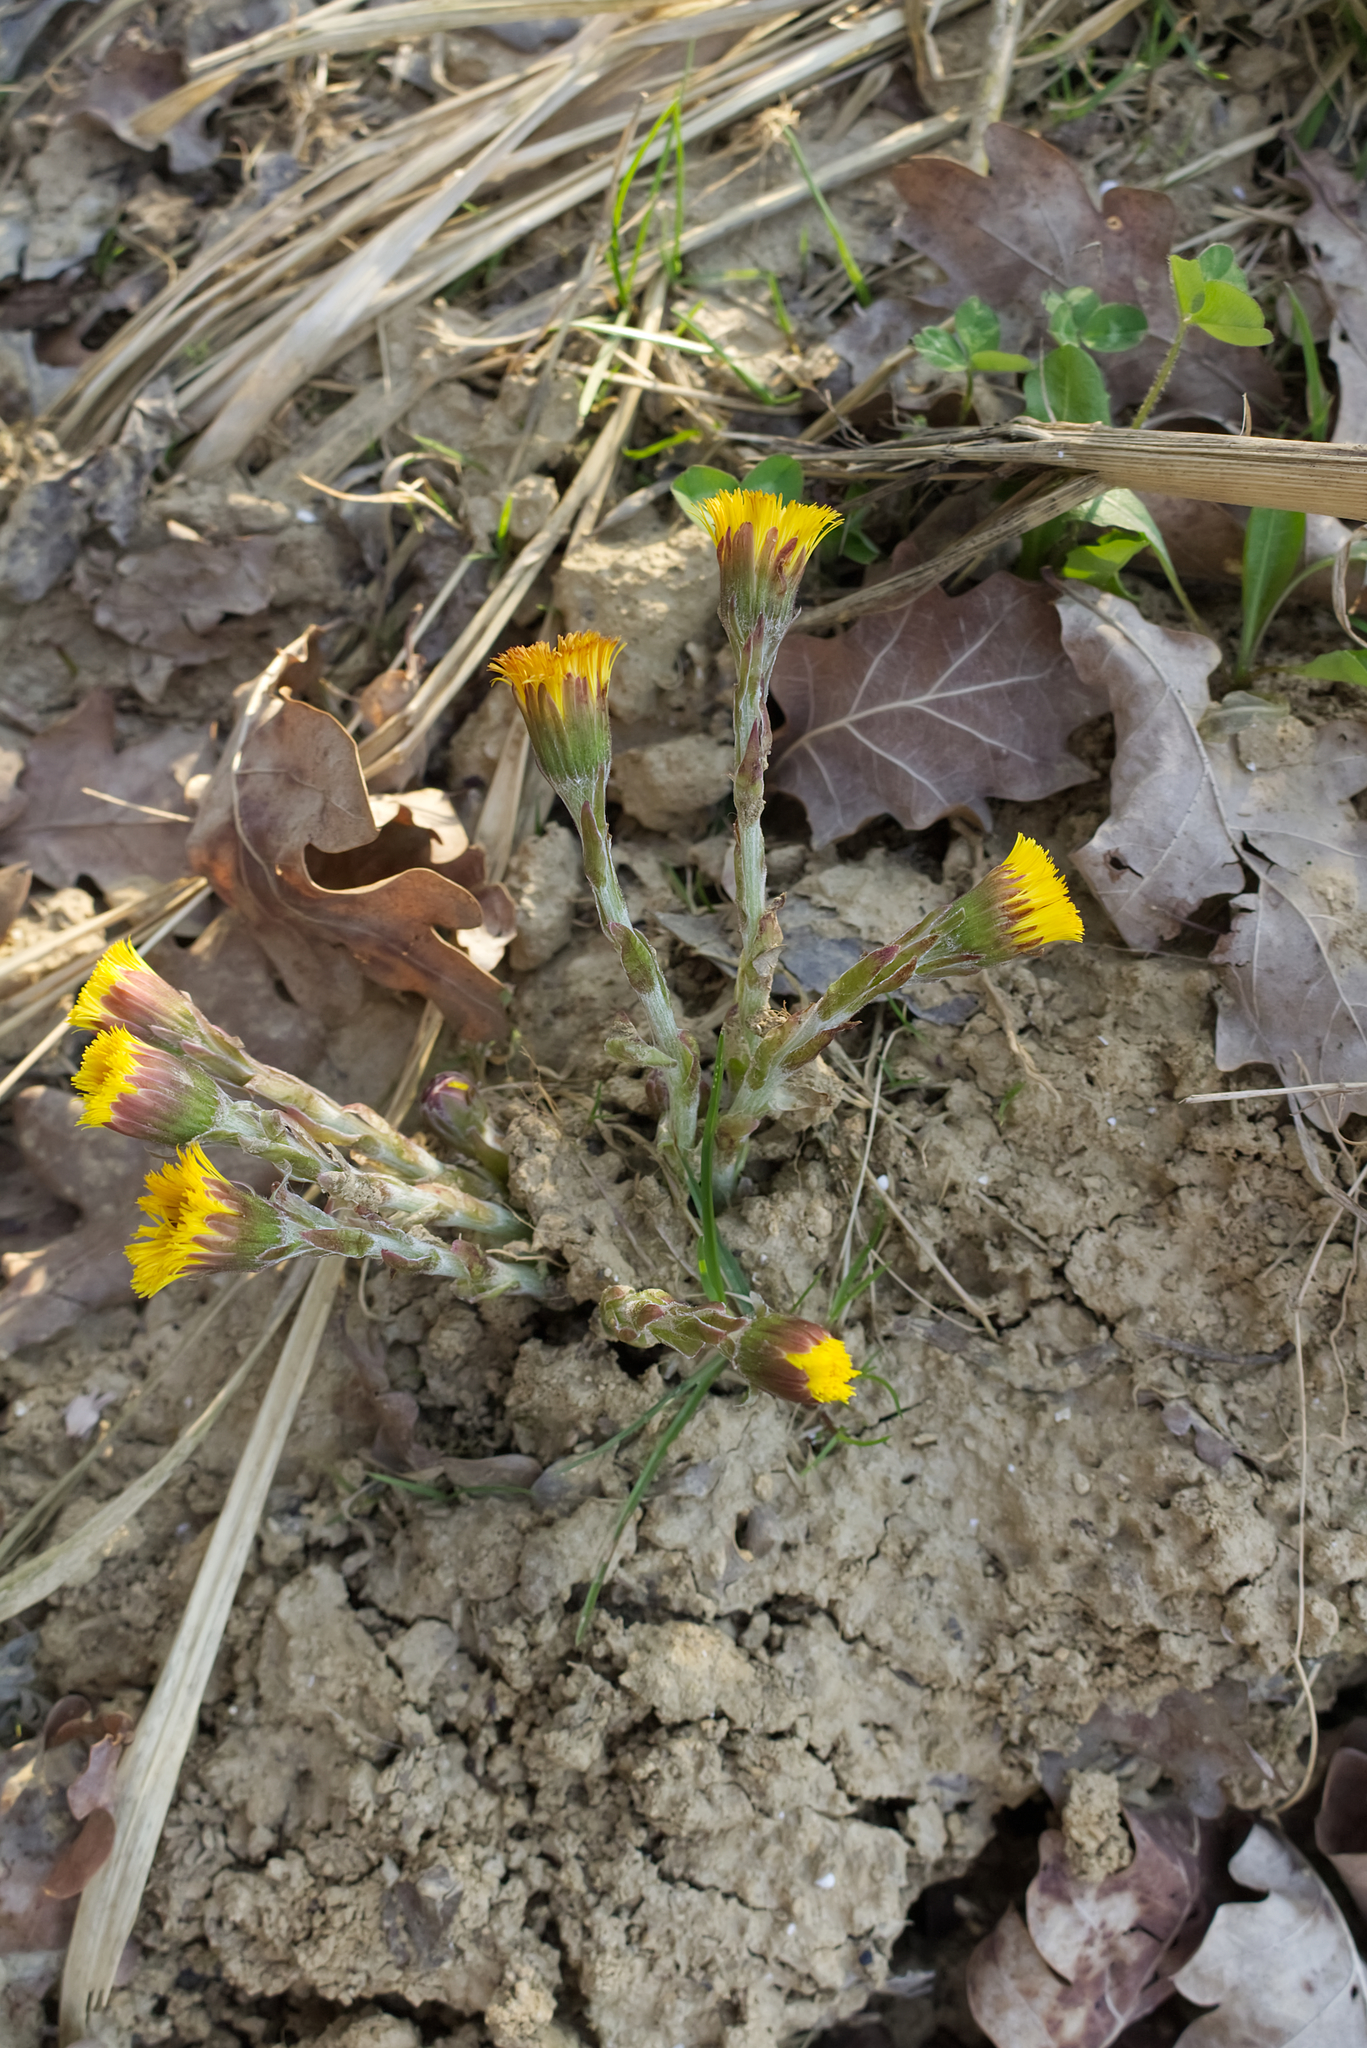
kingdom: Plantae
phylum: Tracheophyta
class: Magnoliopsida
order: Asterales
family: Asteraceae
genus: Tussilago
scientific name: Tussilago farfara
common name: Coltsfoot
